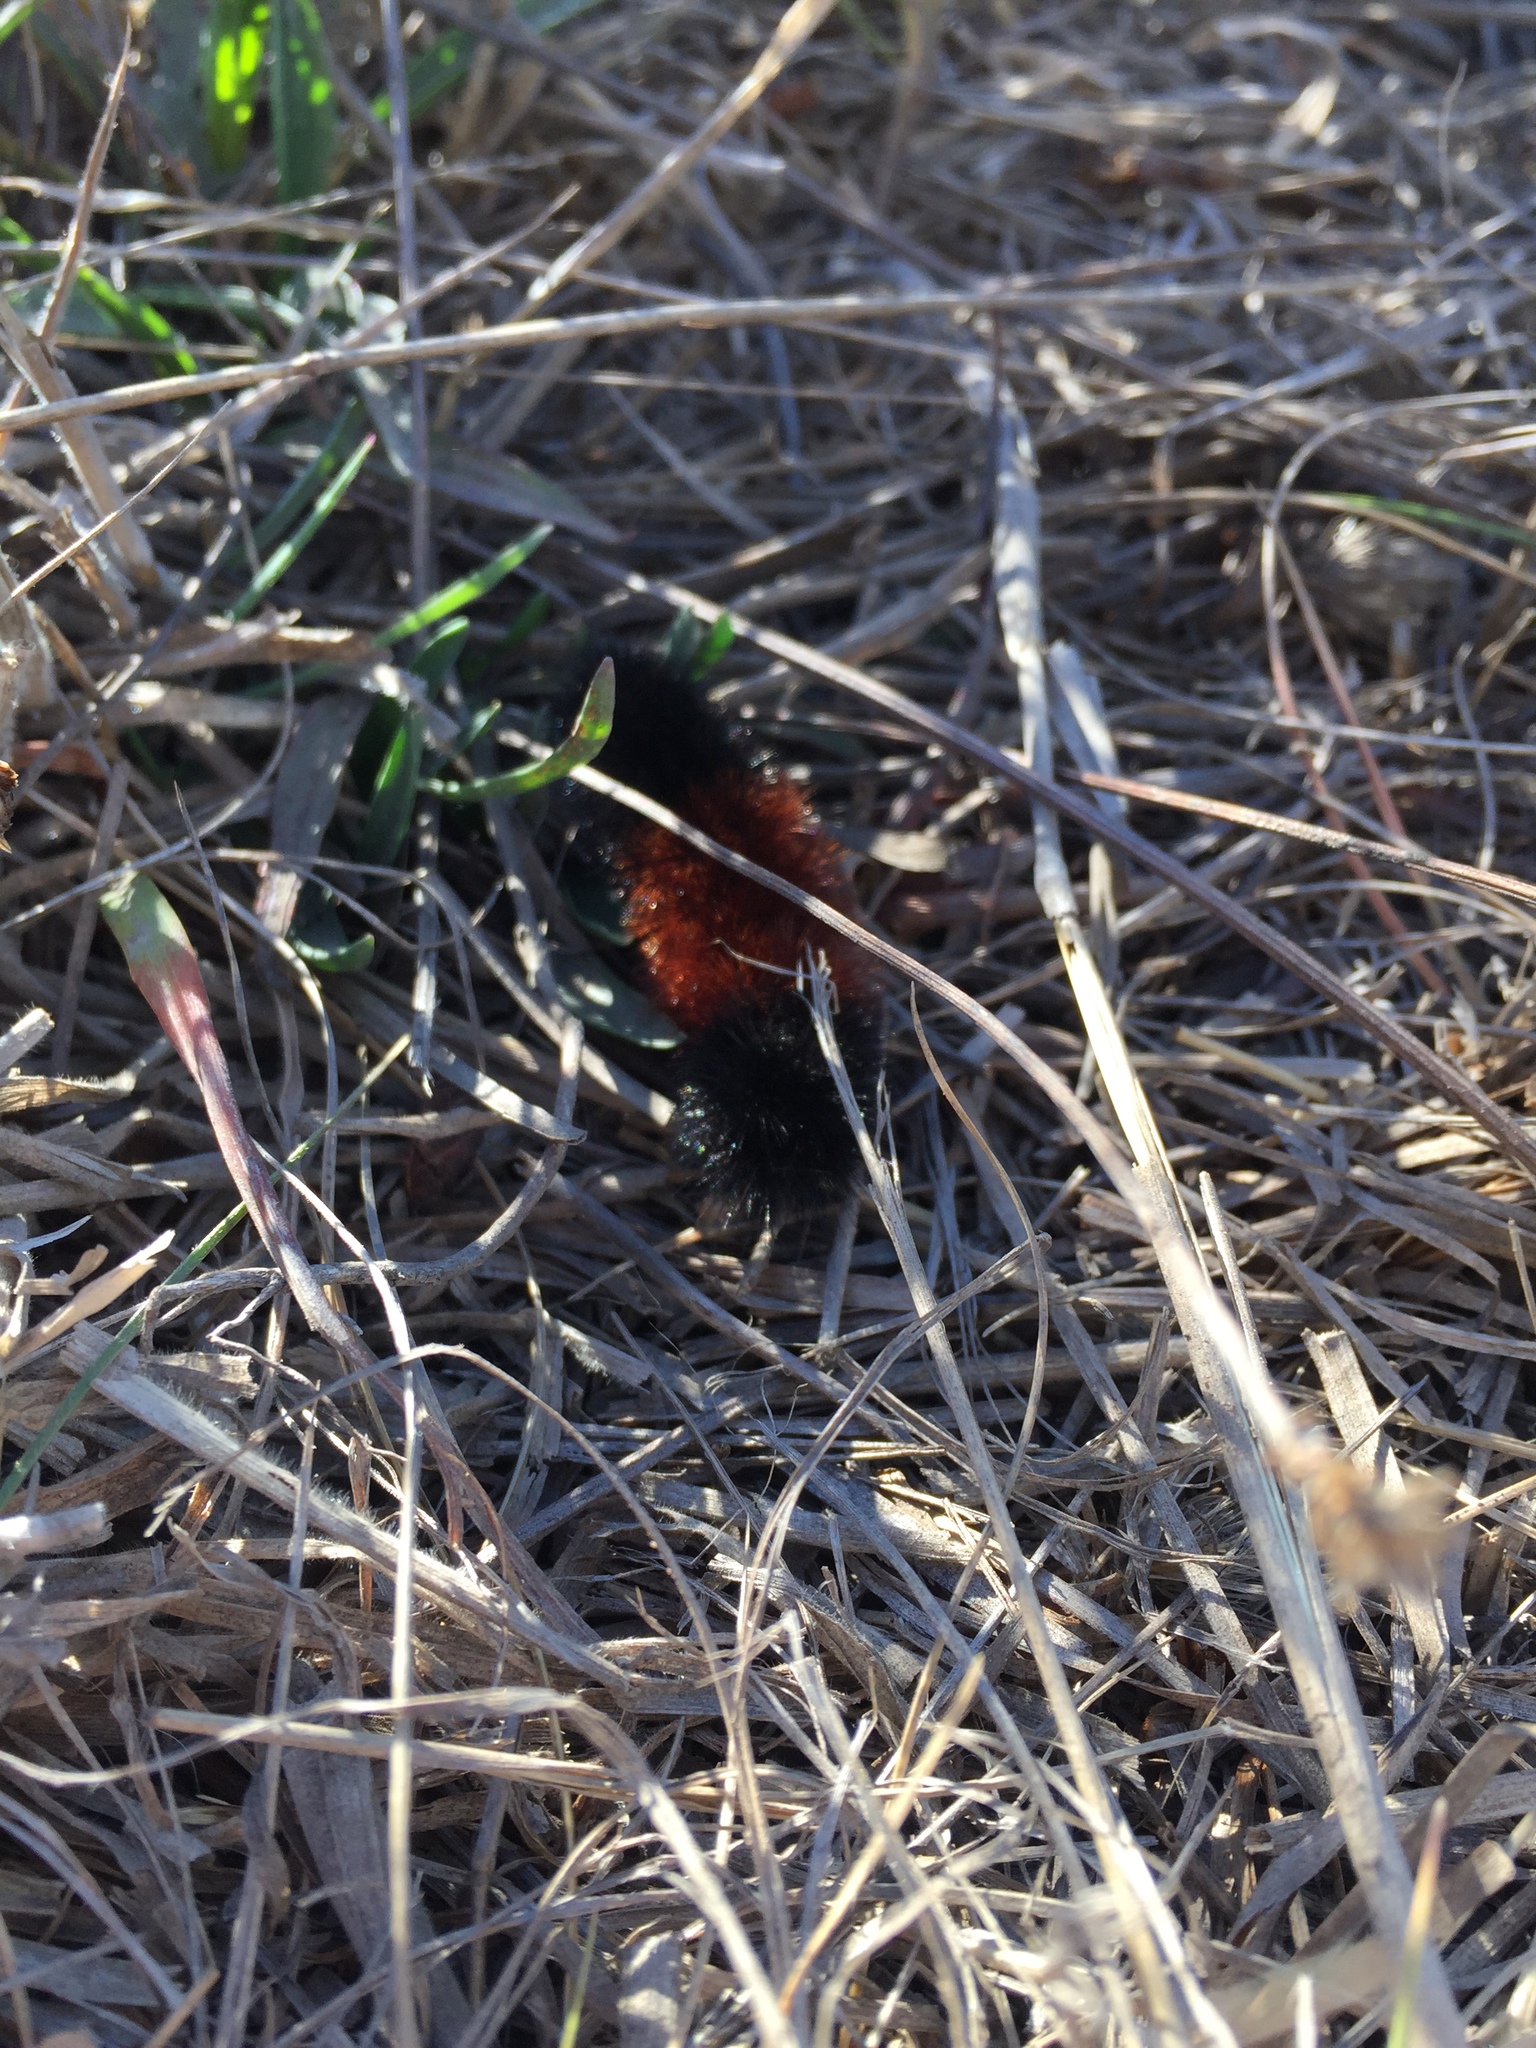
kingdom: Animalia
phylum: Arthropoda
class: Insecta
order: Lepidoptera
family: Erebidae
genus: Pyrrharctia
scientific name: Pyrrharctia isabella
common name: Isabella tiger moth
